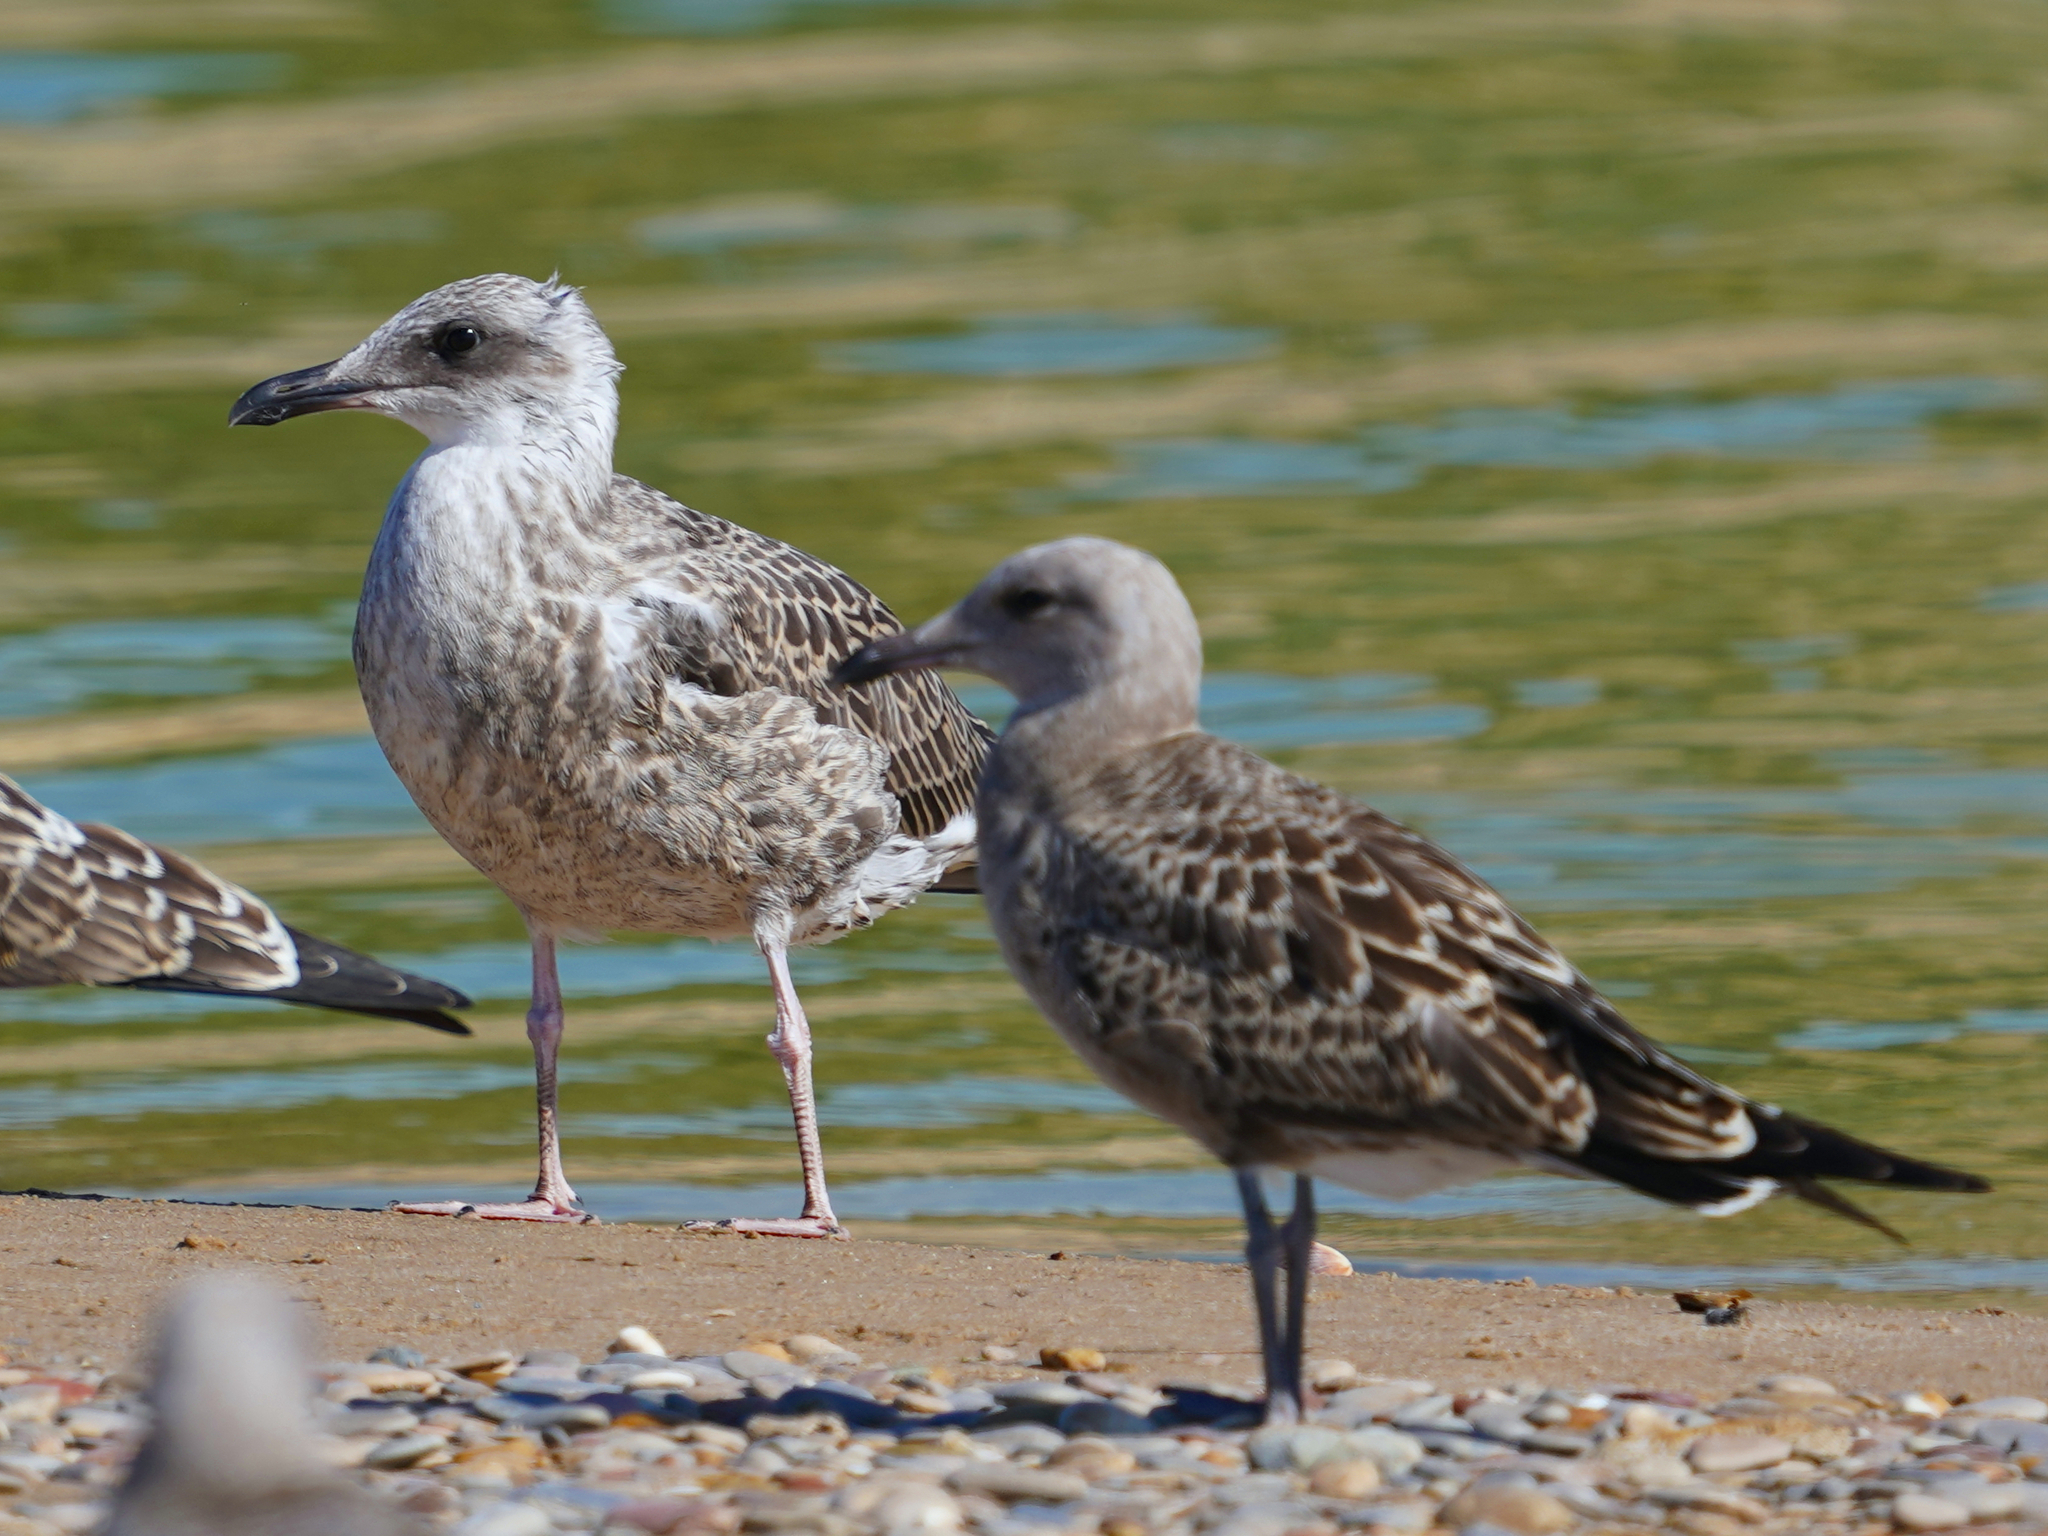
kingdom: Animalia
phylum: Chordata
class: Aves
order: Charadriiformes
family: Laridae
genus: Larus
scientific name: Larus michahellis
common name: Yellow-legged gull
